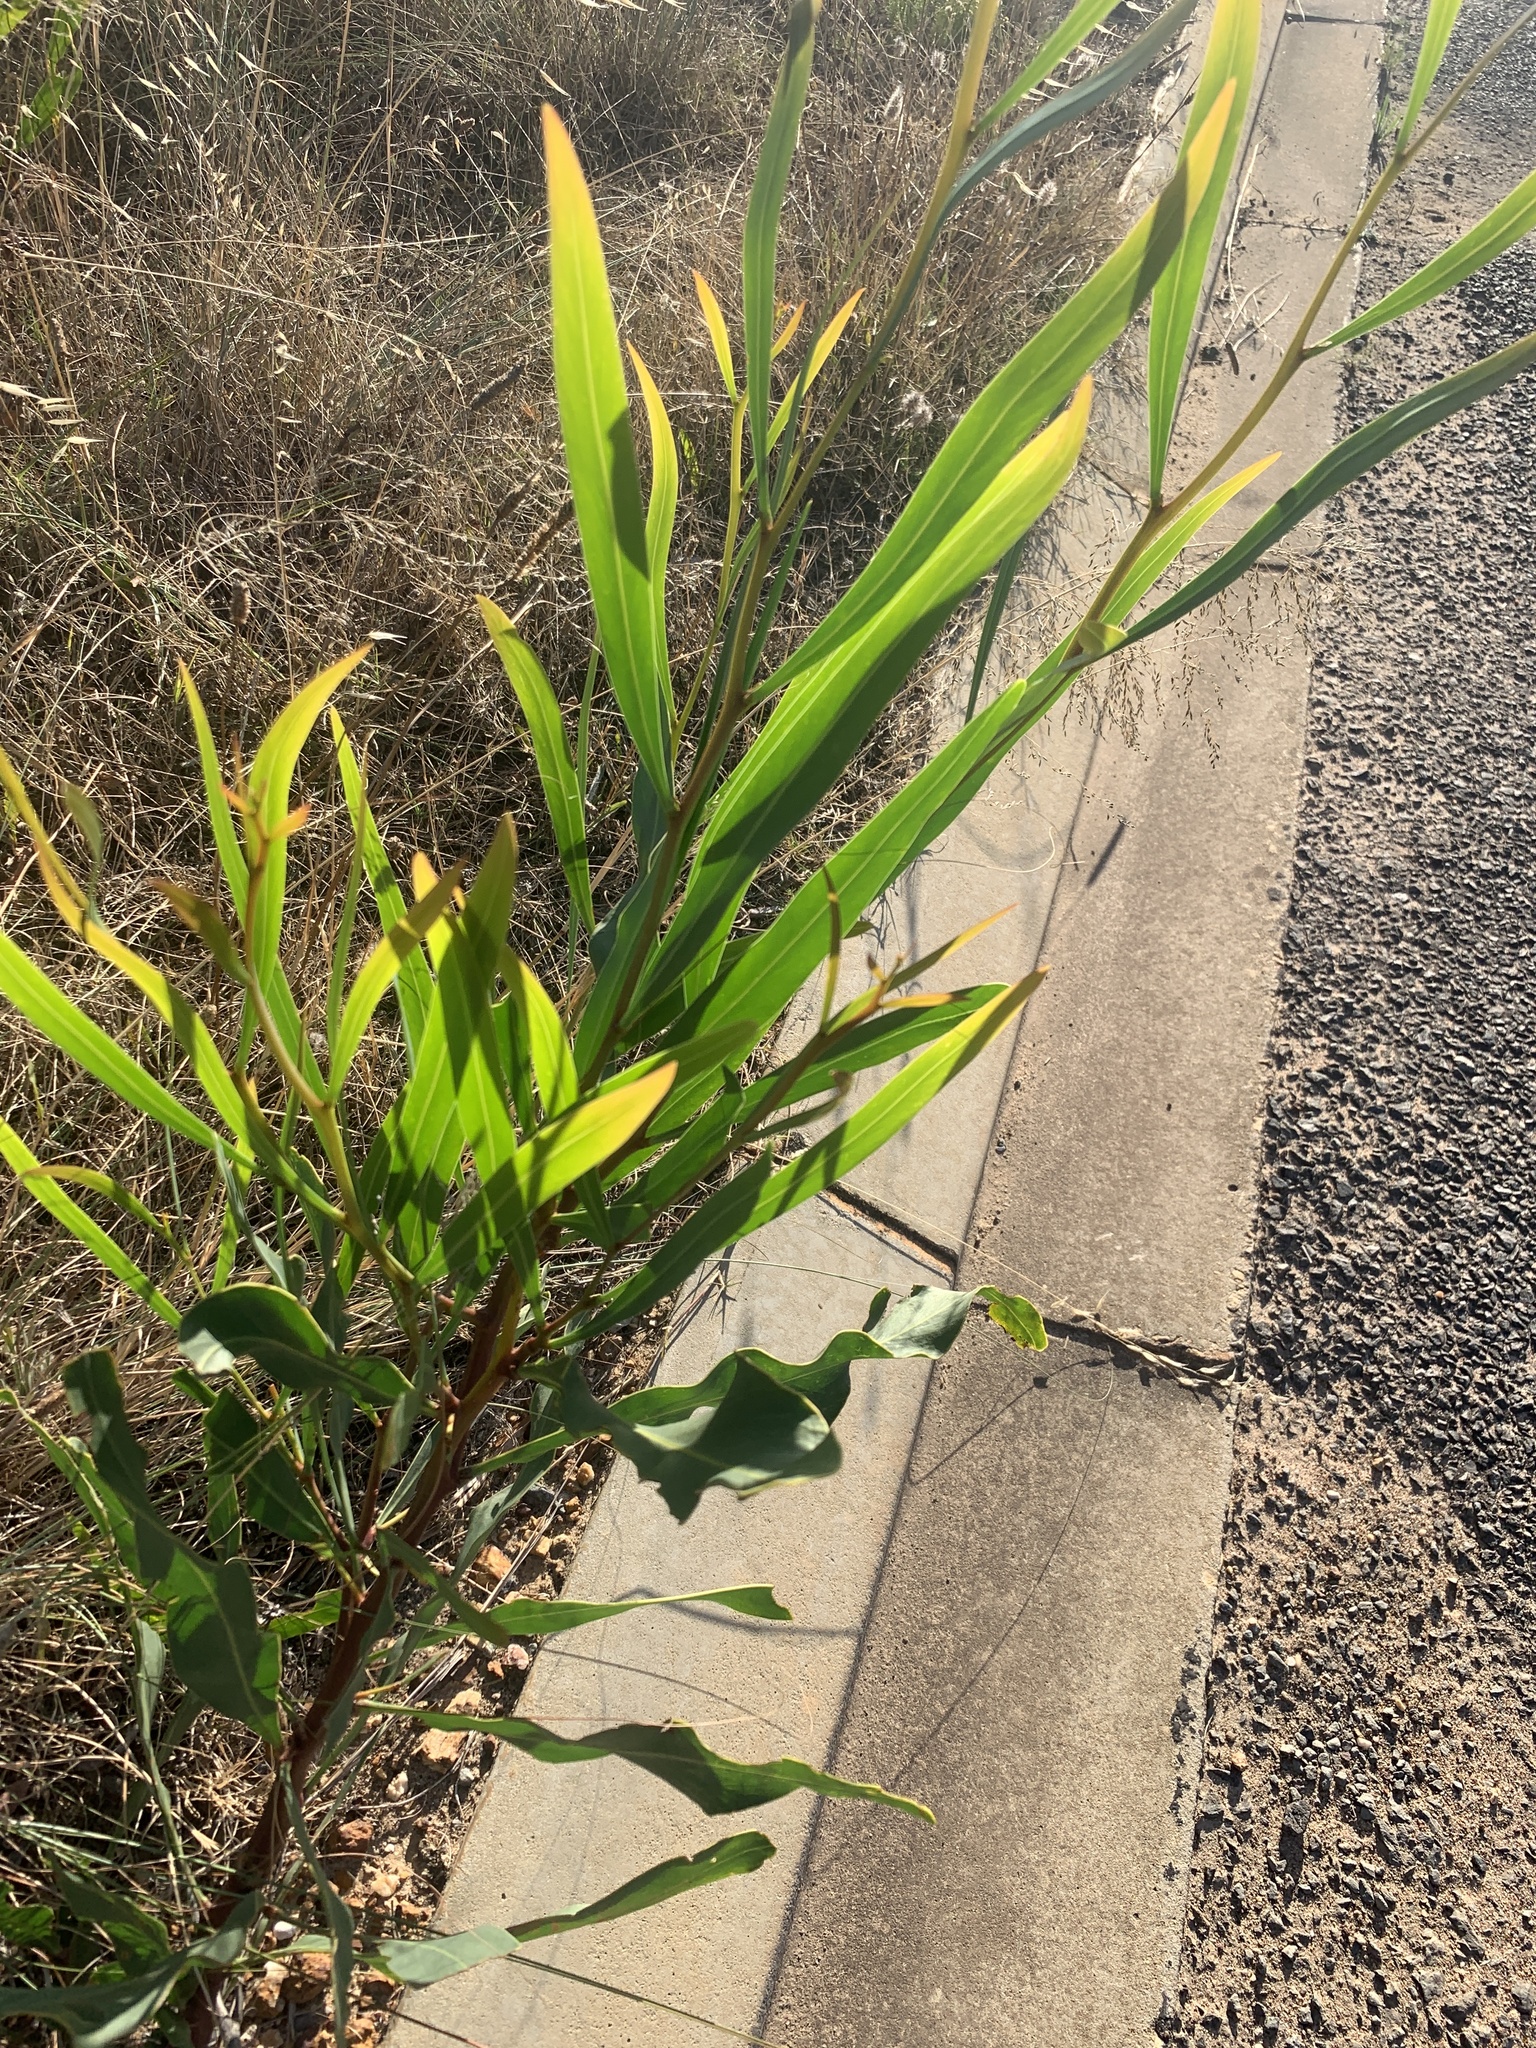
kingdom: Plantae
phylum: Tracheophyta
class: Magnoliopsida
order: Fabales
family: Fabaceae
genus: Acacia
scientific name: Acacia saligna
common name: Orange wattle
